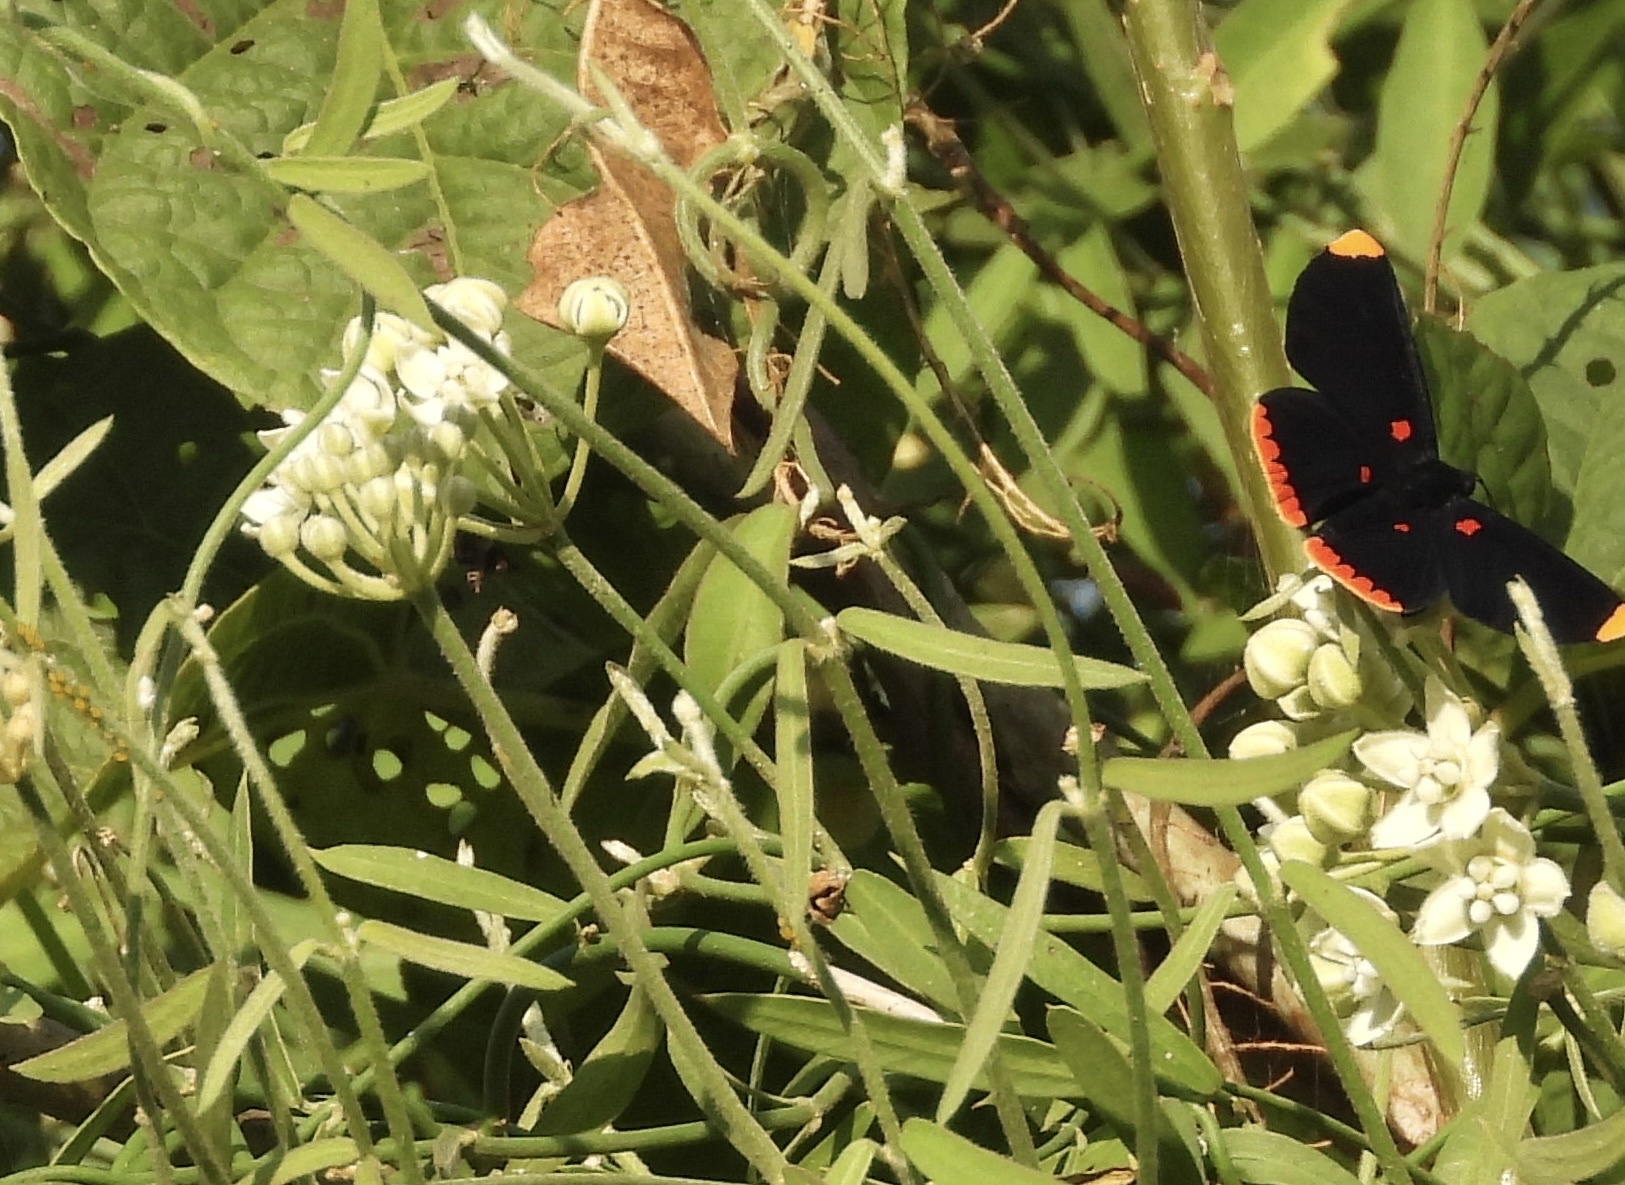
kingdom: Animalia
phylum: Arthropoda
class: Insecta
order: Lepidoptera
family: Lycaenidae
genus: Melanis
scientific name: Melanis pixe
